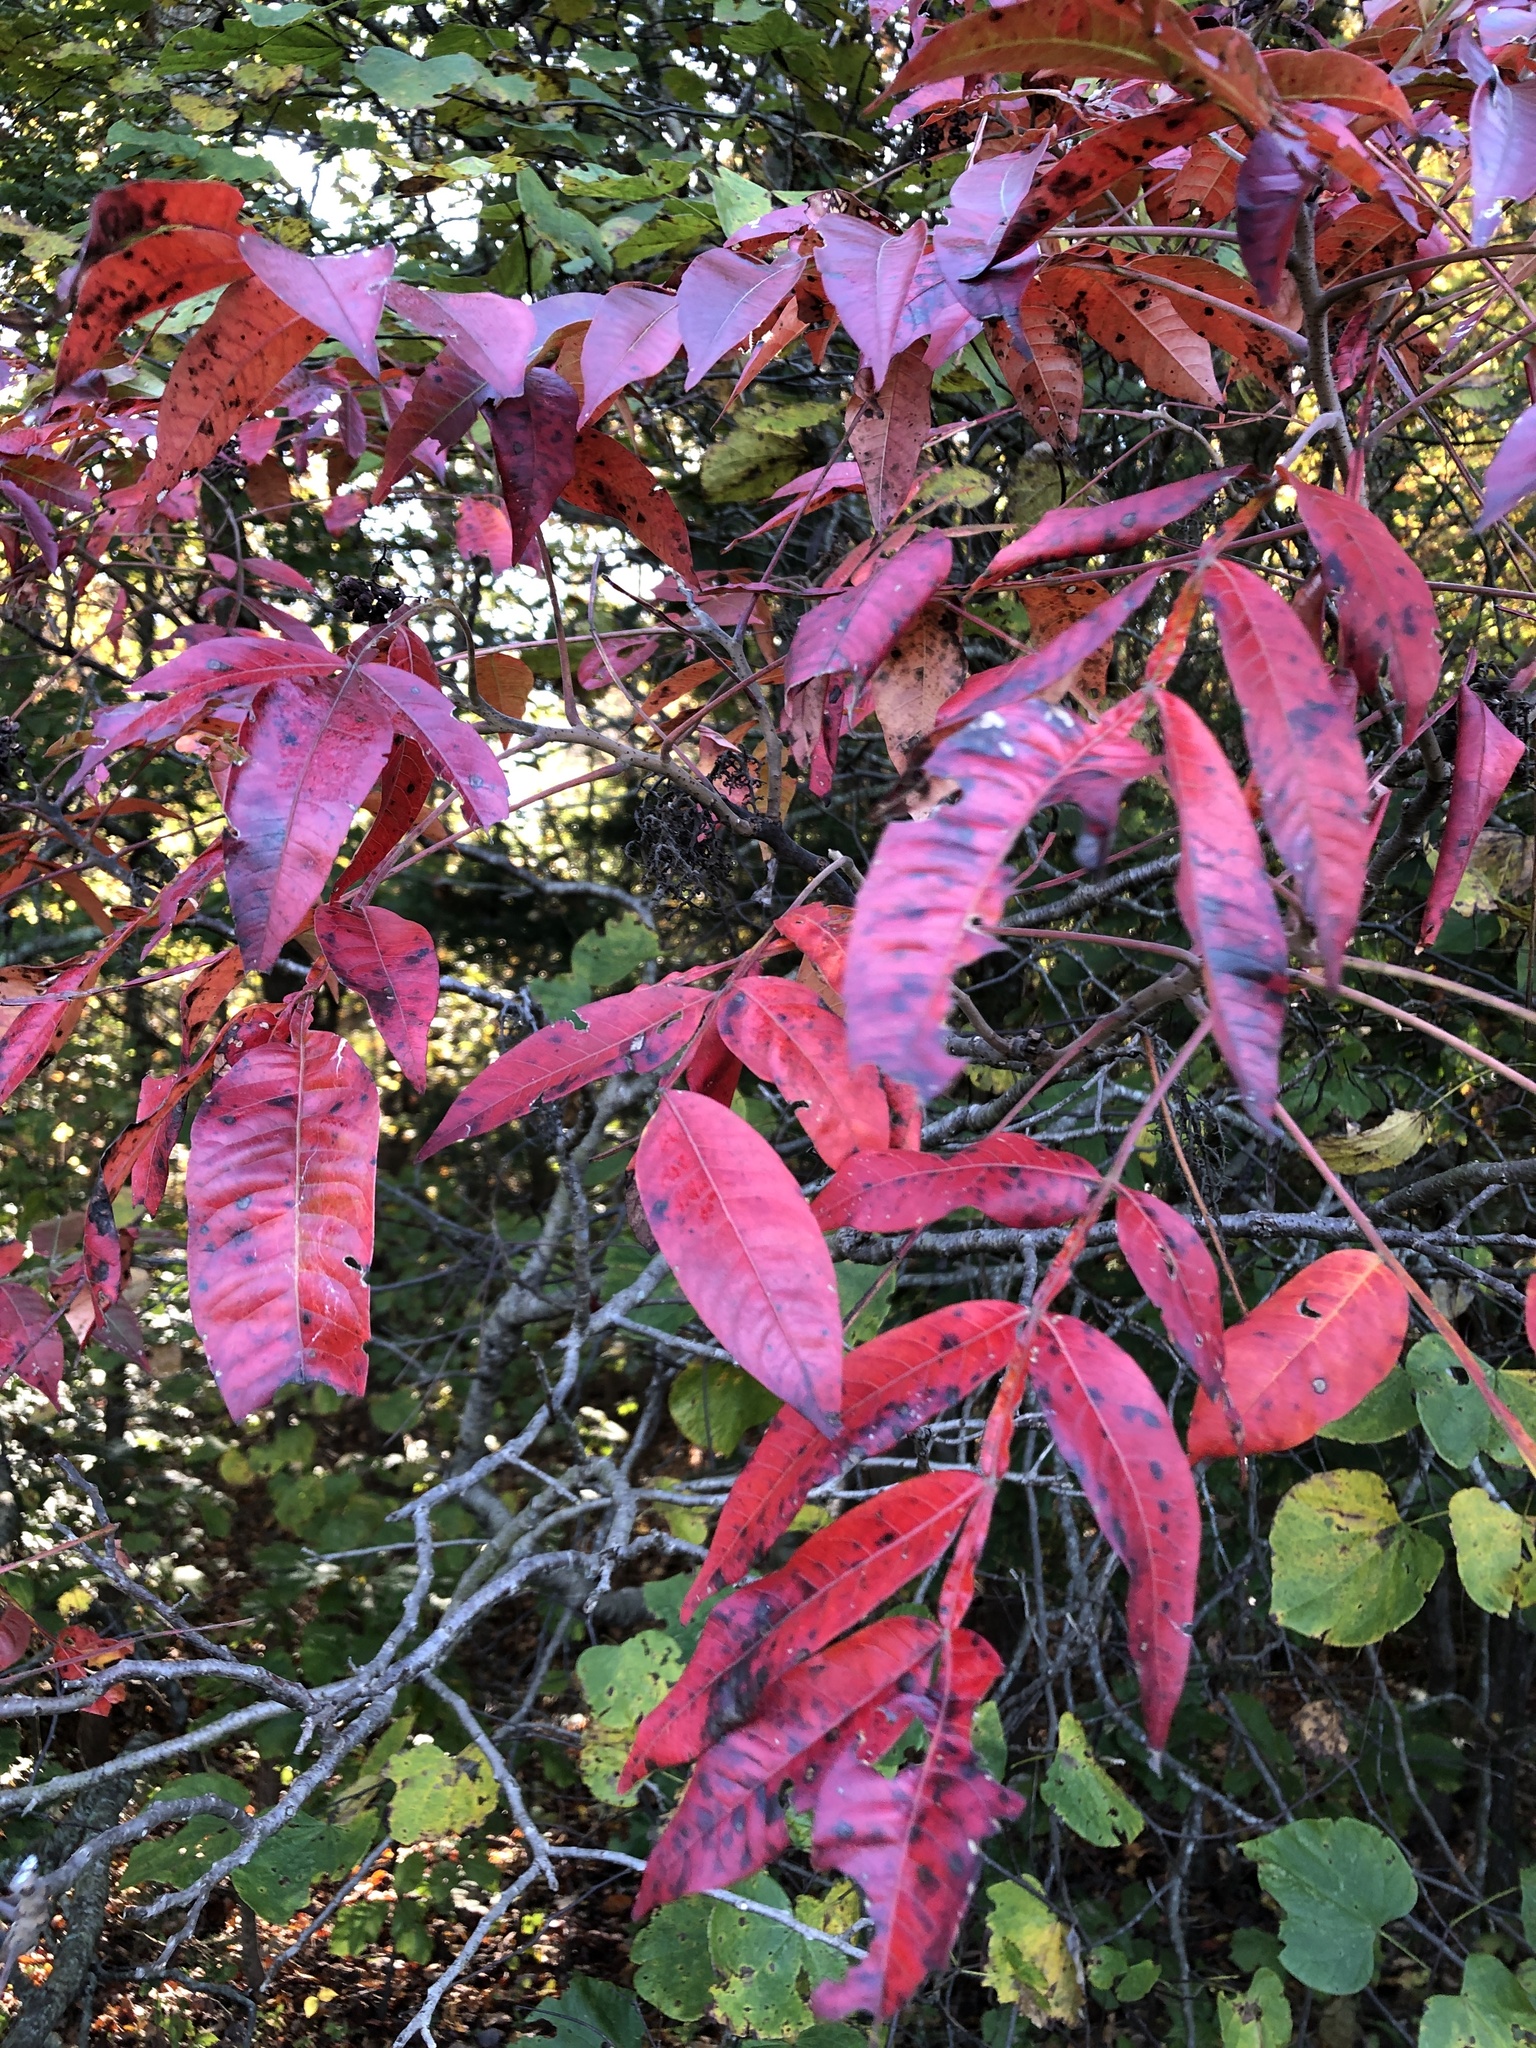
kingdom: Plantae
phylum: Tracheophyta
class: Magnoliopsida
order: Sapindales
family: Anacardiaceae
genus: Rhus
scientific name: Rhus copallina
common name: Shining sumac
